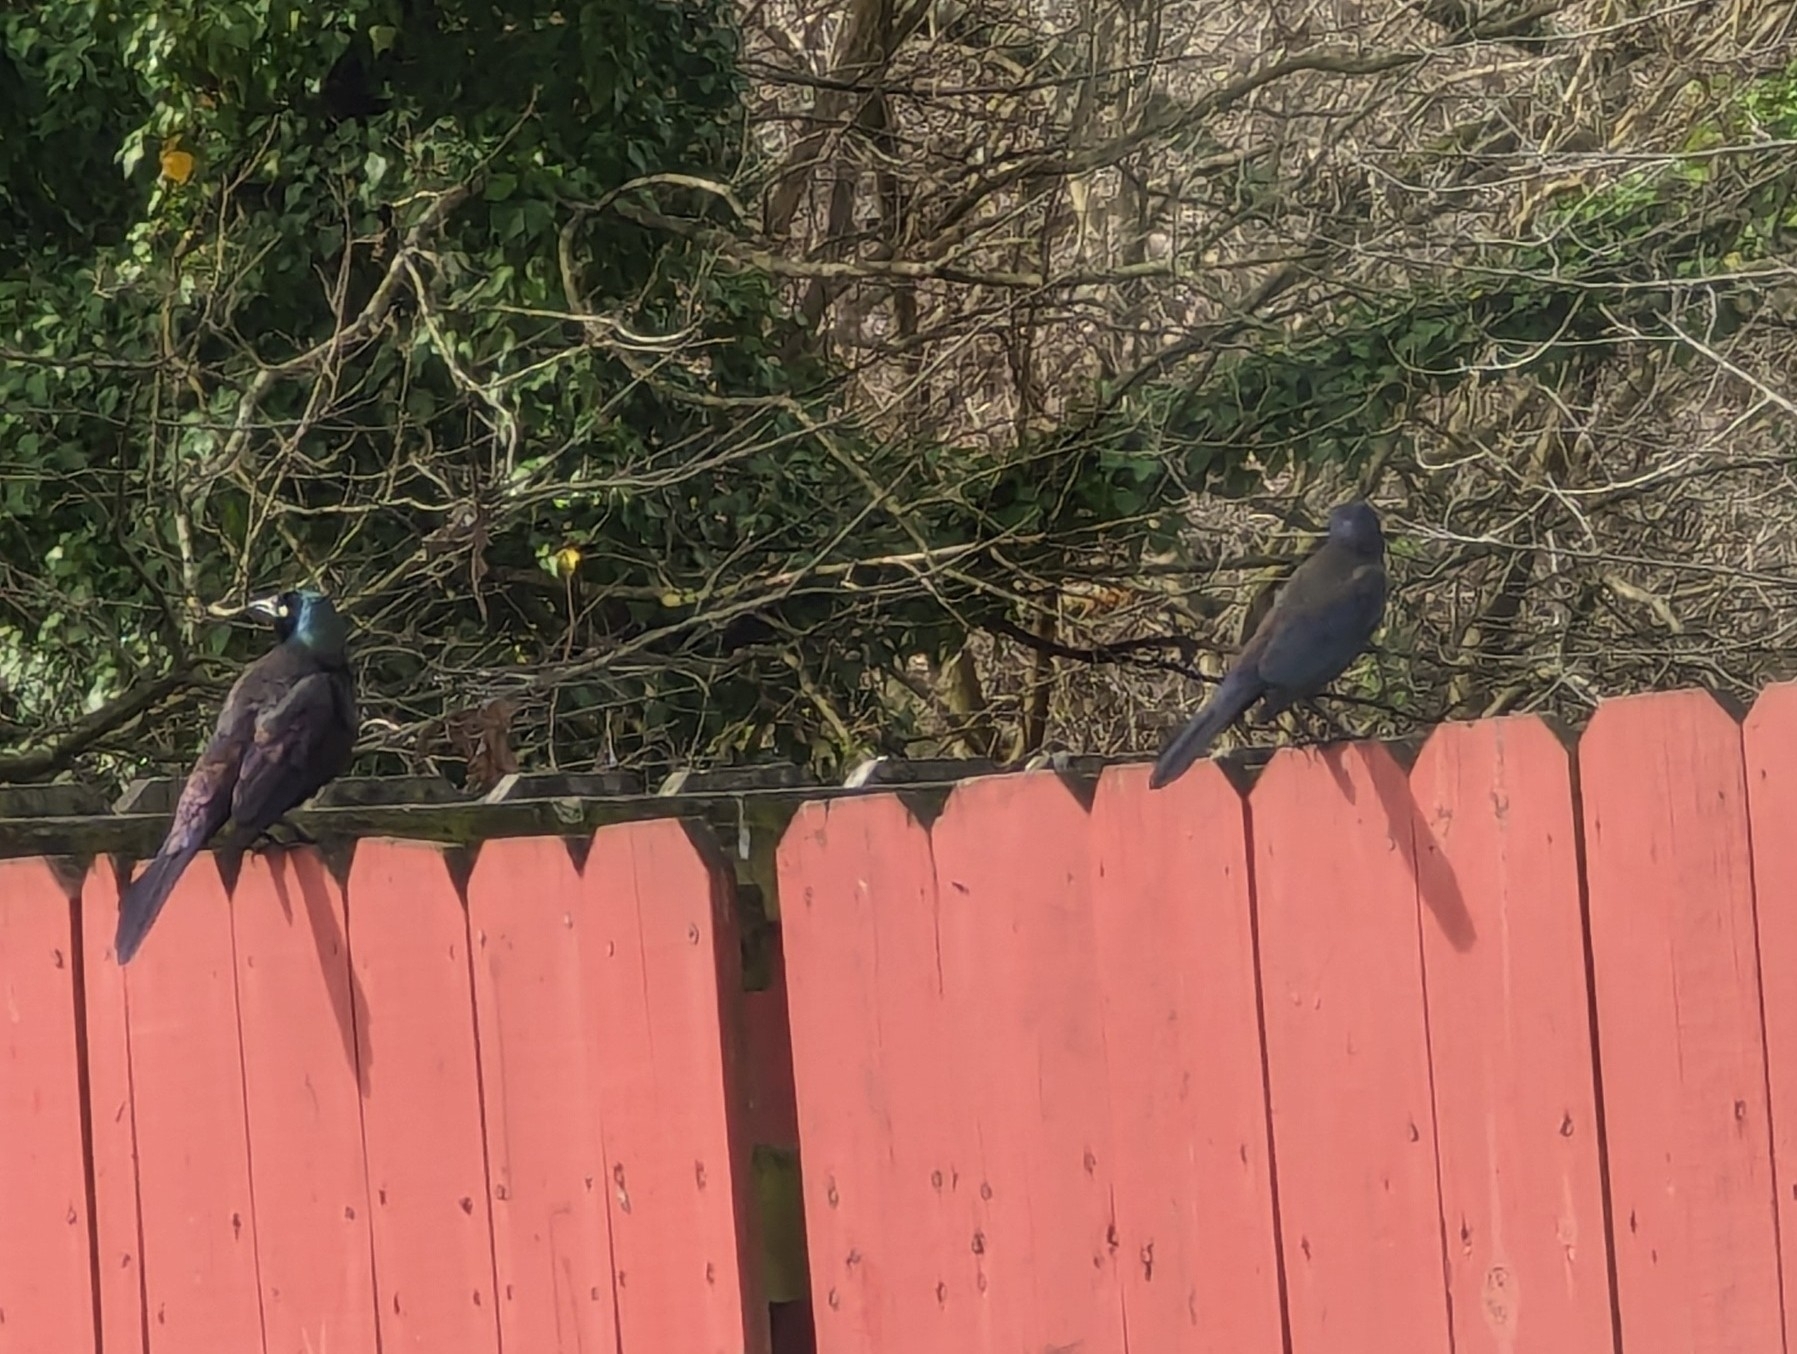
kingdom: Animalia
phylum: Chordata
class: Aves
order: Passeriformes
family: Icteridae
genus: Quiscalus
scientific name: Quiscalus quiscula
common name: Common grackle
